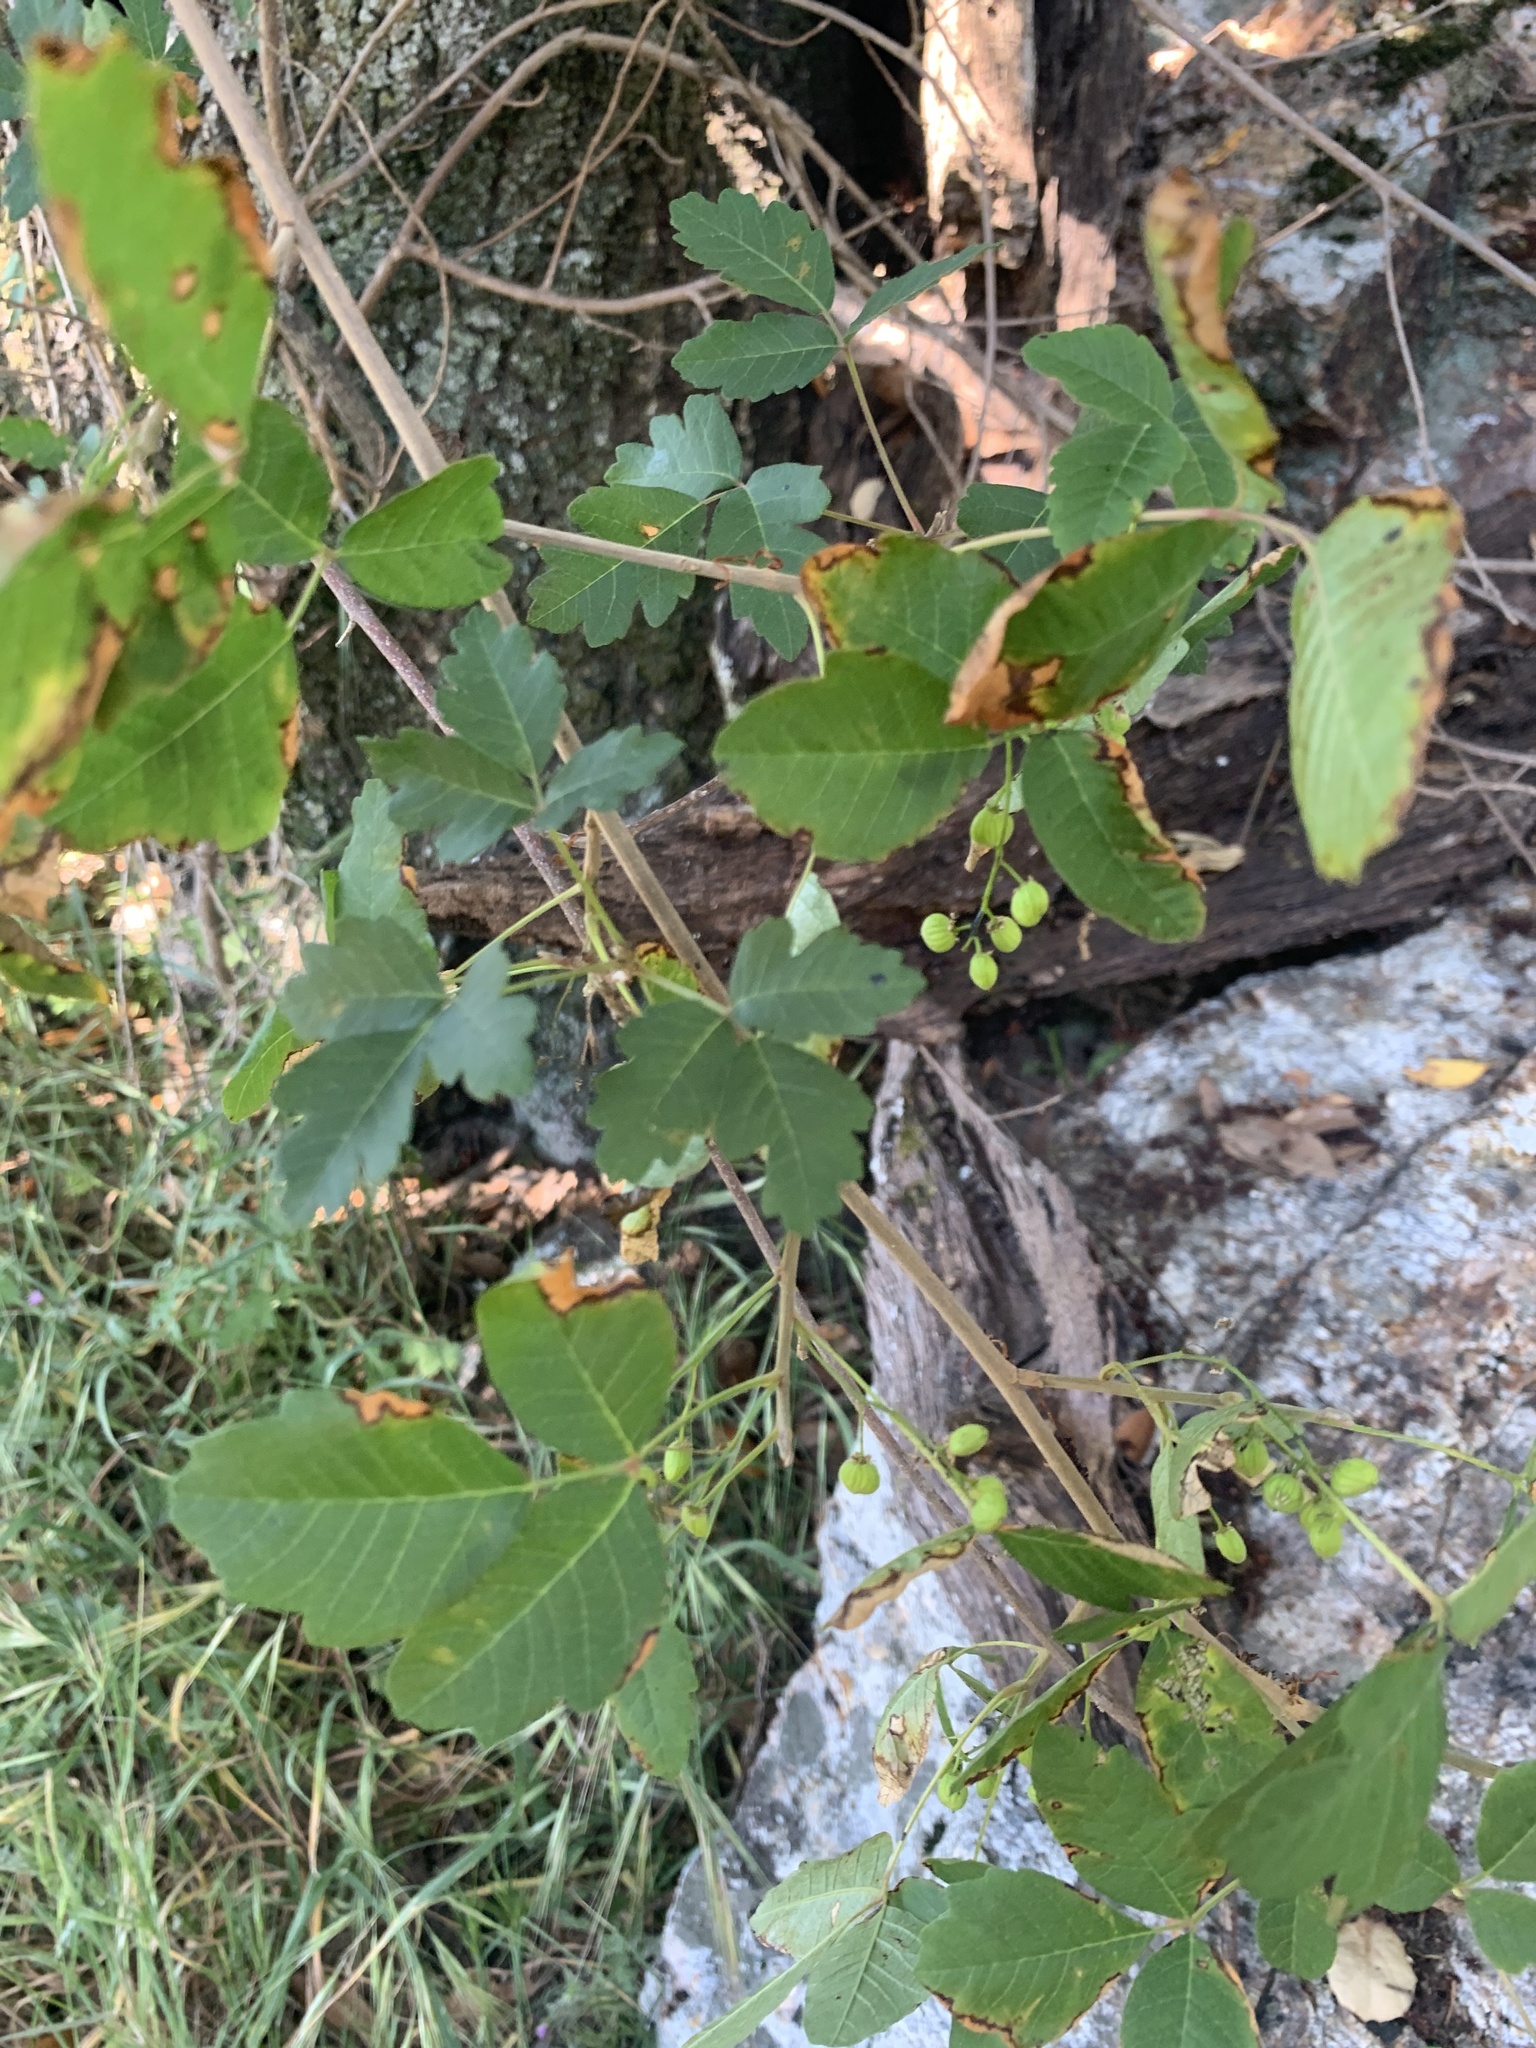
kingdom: Plantae
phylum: Tracheophyta
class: Magnoliopsida
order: Sapindales
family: Anacardiaceae
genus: Toxicodendron
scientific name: Toxicodendron diversilobum
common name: Pacific poison-oak
